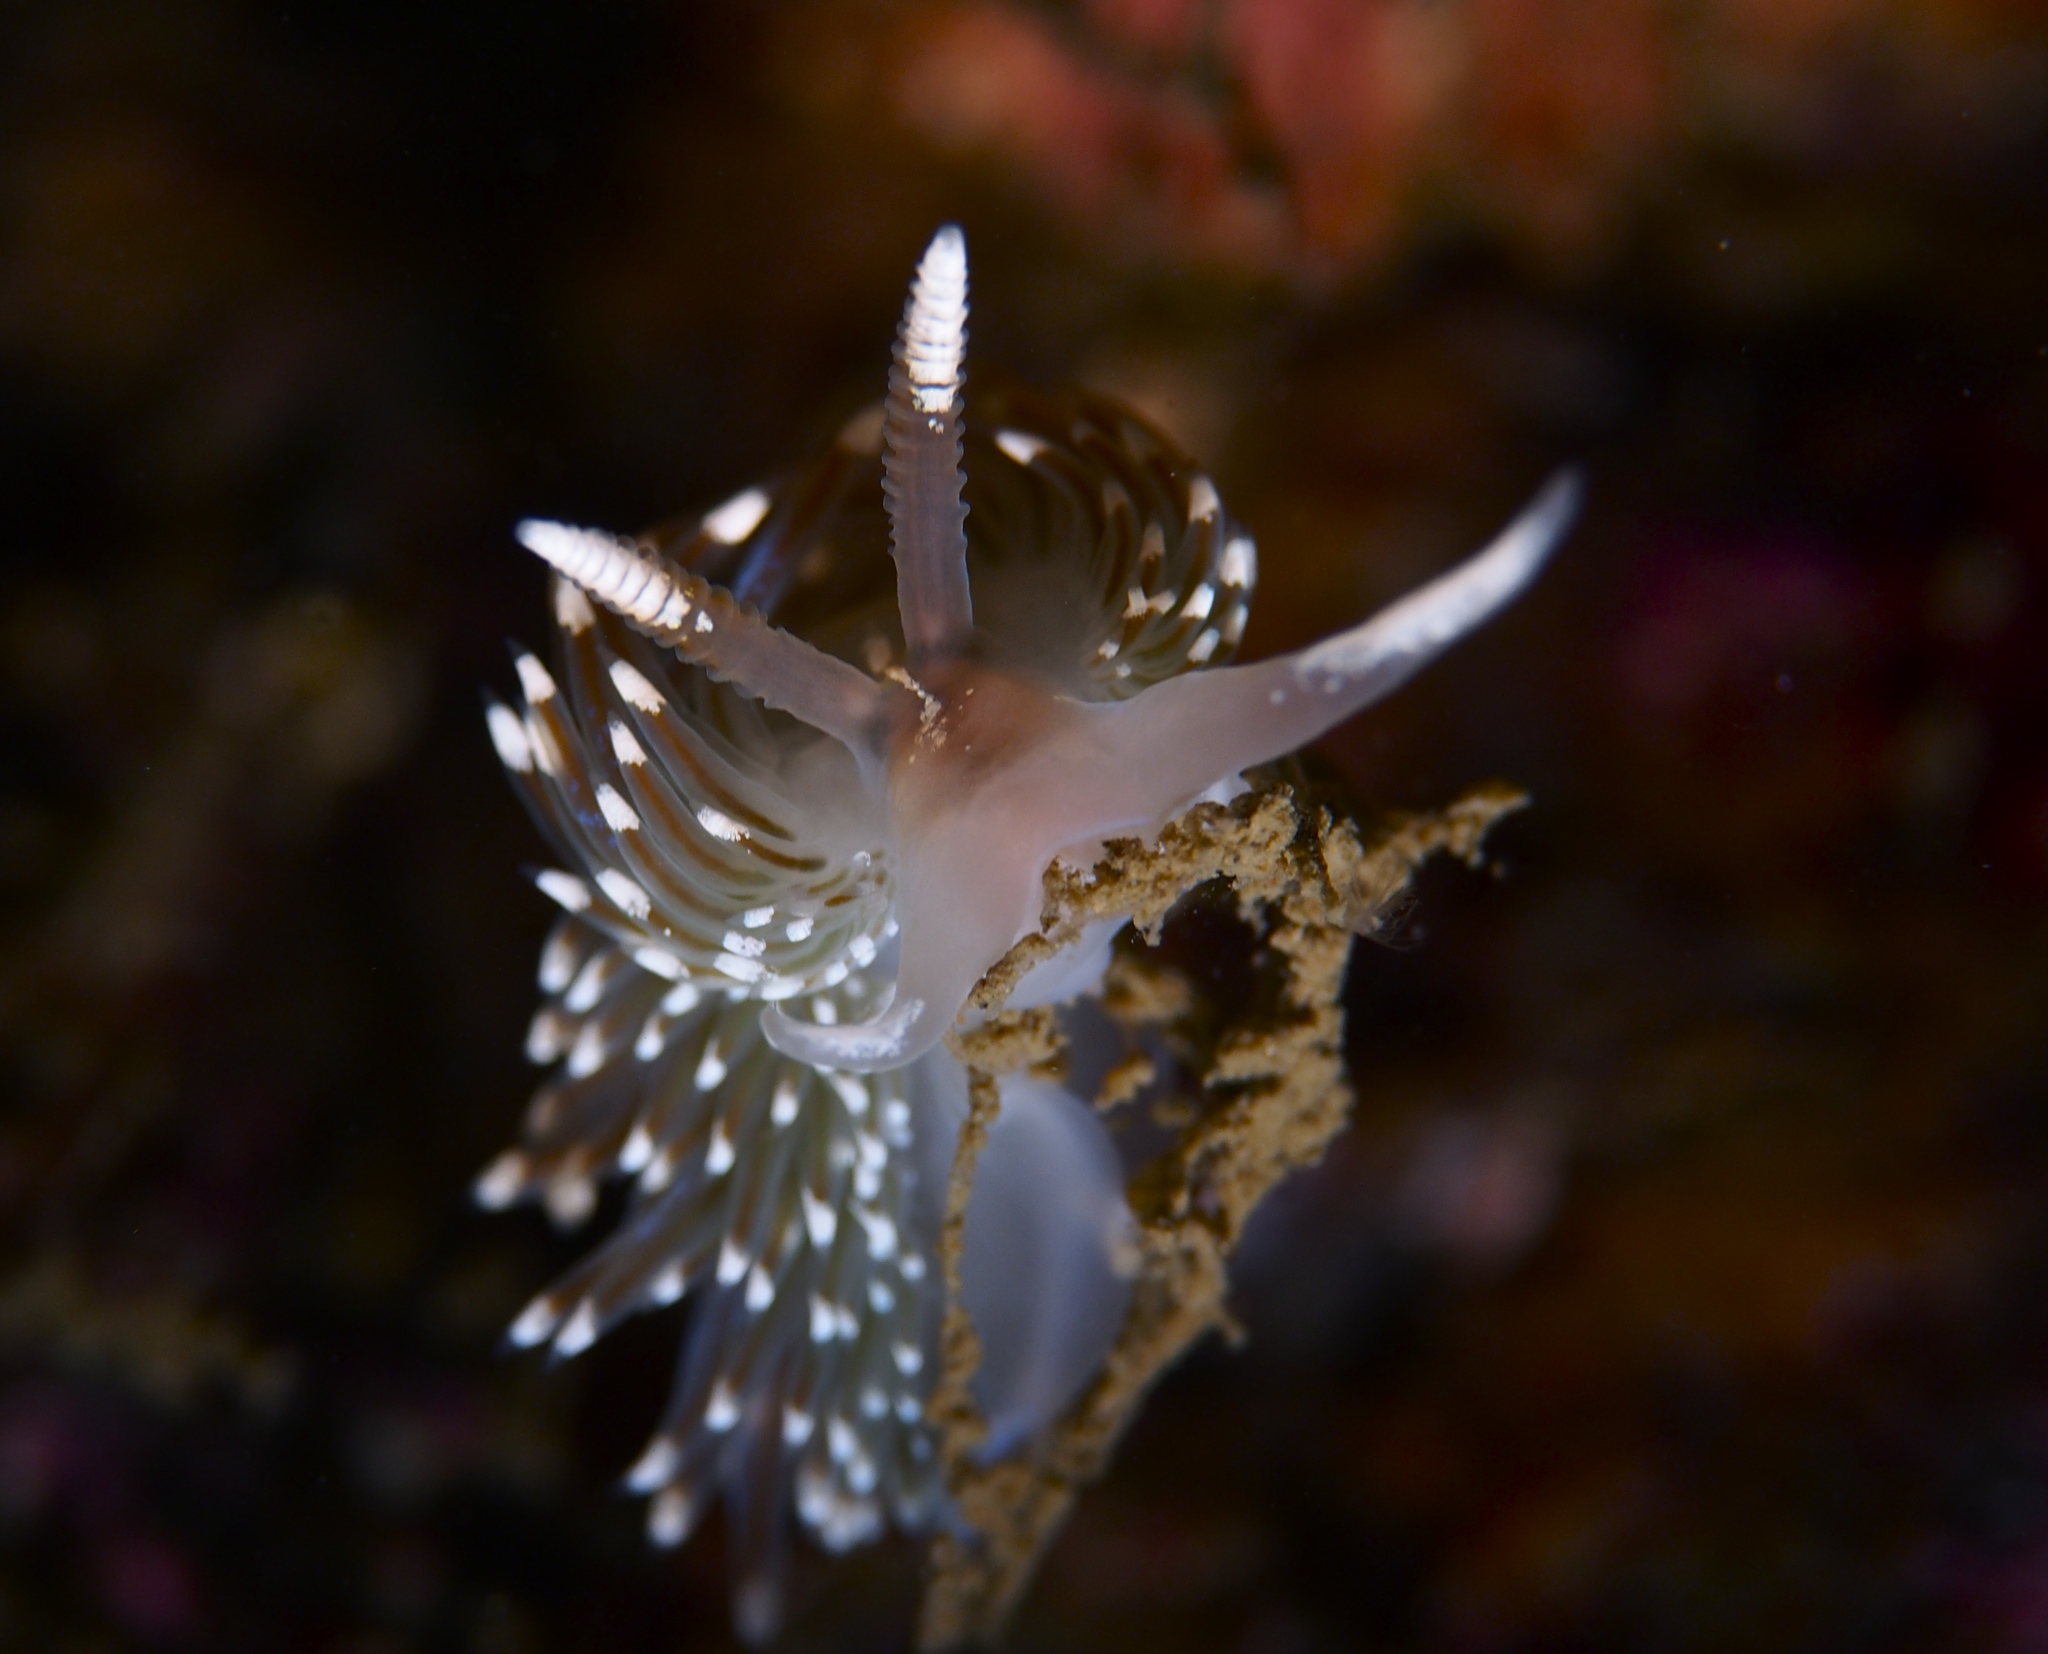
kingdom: Animalia
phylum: Mollusca
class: Gastropoda
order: Nudibranchia
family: Facelinidae
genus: Facelina
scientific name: Facelina auriculata
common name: Slender facelina
